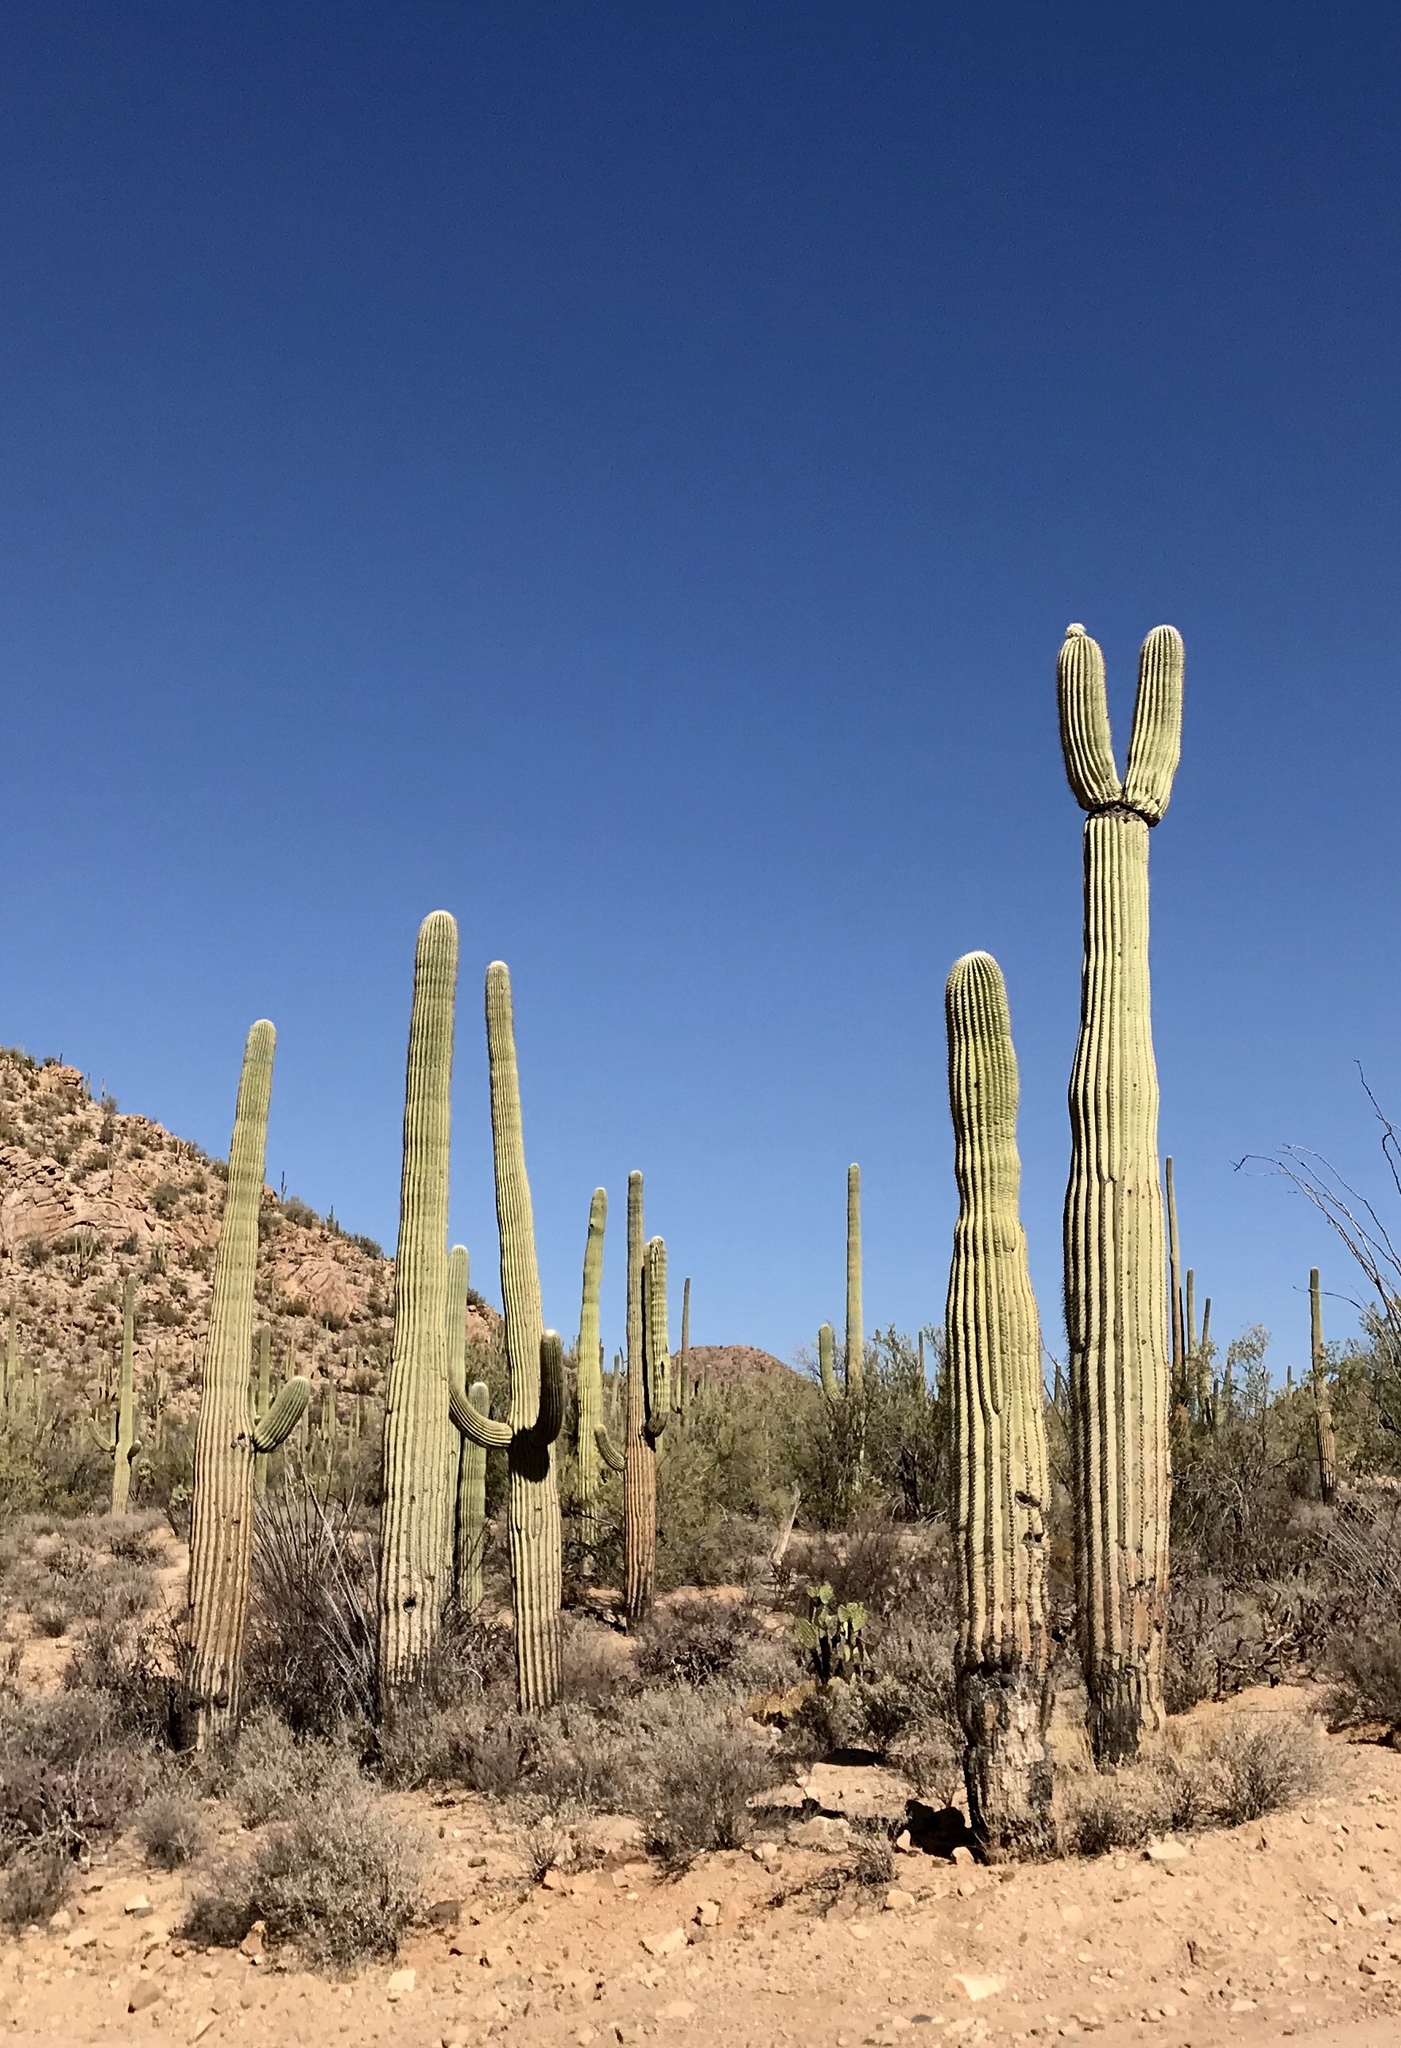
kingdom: Plantae
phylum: Tracheophyta
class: Magnoliopsida
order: Caryophyllales
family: Cactaceae
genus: Carnegiea
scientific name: Carnegiea gigantea
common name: Saguaro
